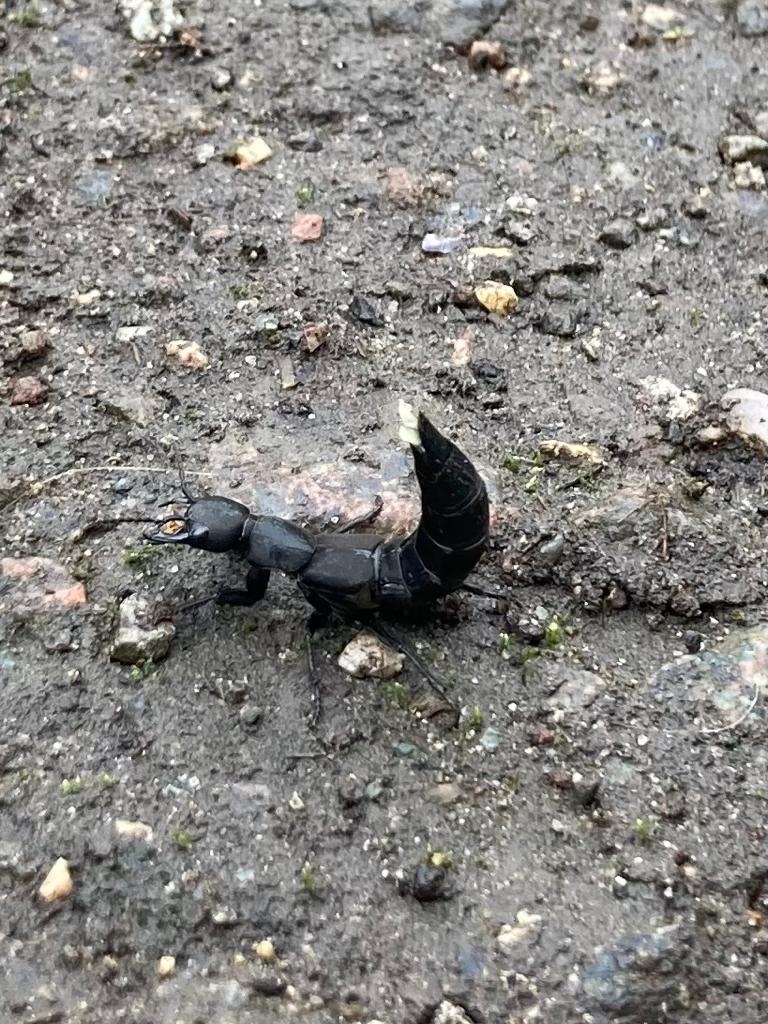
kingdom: Animalia
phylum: Arthropoda
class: Insecta
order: Coleoptera
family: Staphylinidae
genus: Ocypus
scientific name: Ocypus olens
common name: Devil's coach-horse
